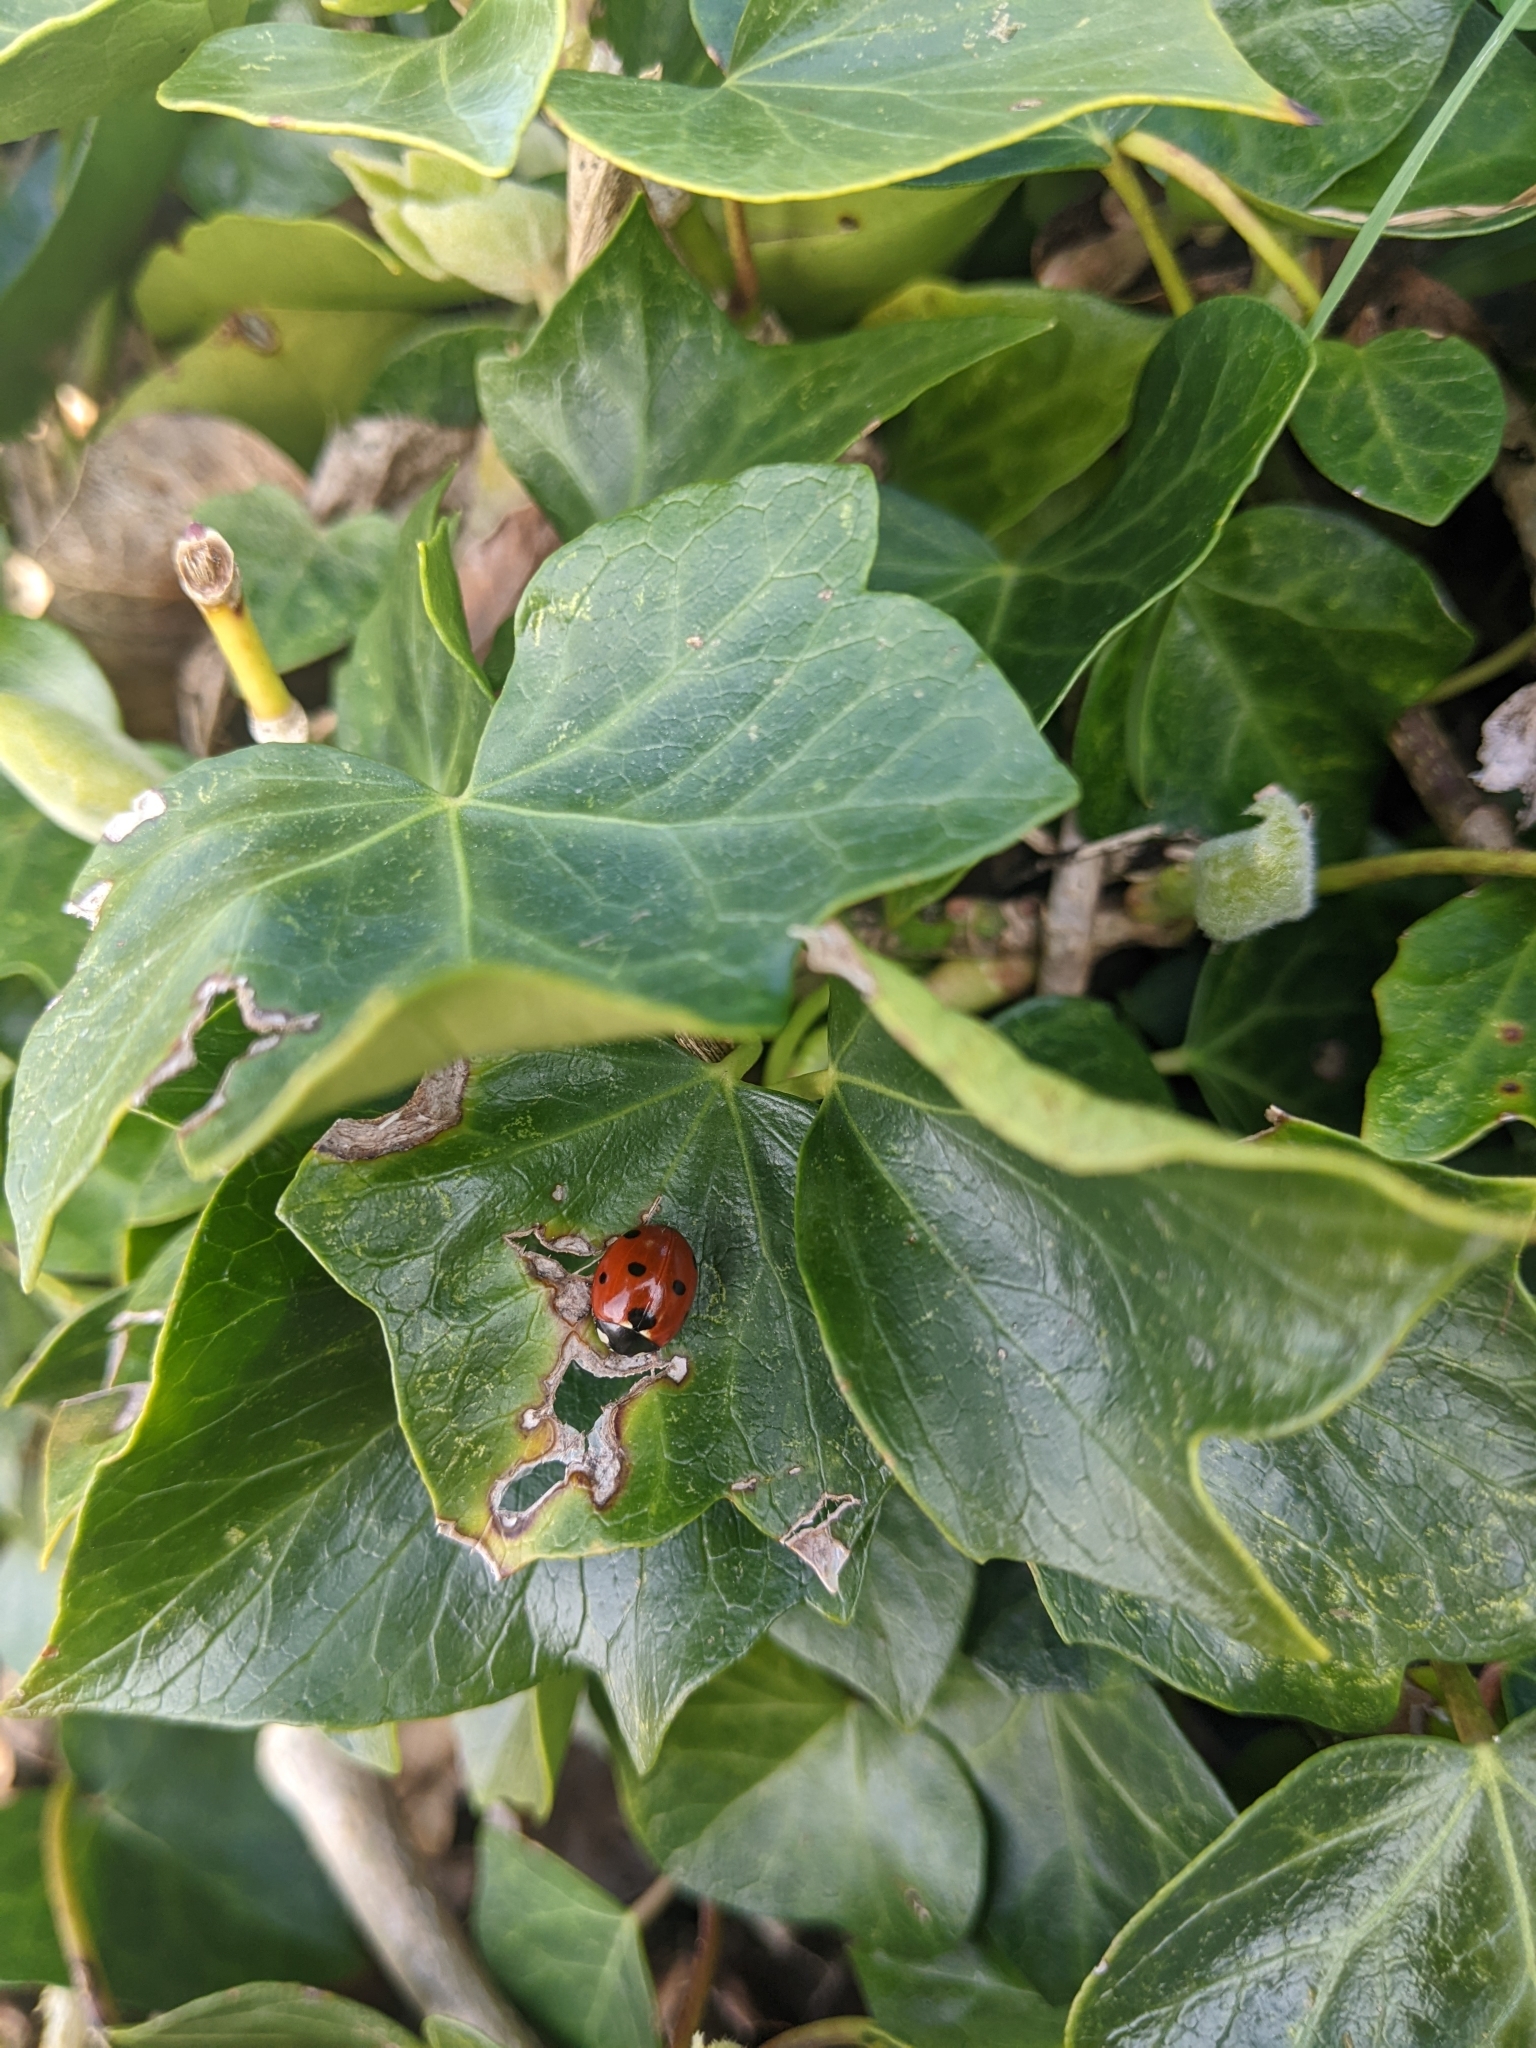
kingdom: Animalia
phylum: Arthropoda
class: Insecta
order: Coleoptera
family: Coccinellidae
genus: Coccinella
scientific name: Coccinella septempunctata
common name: Sevenspotted lady beetle
